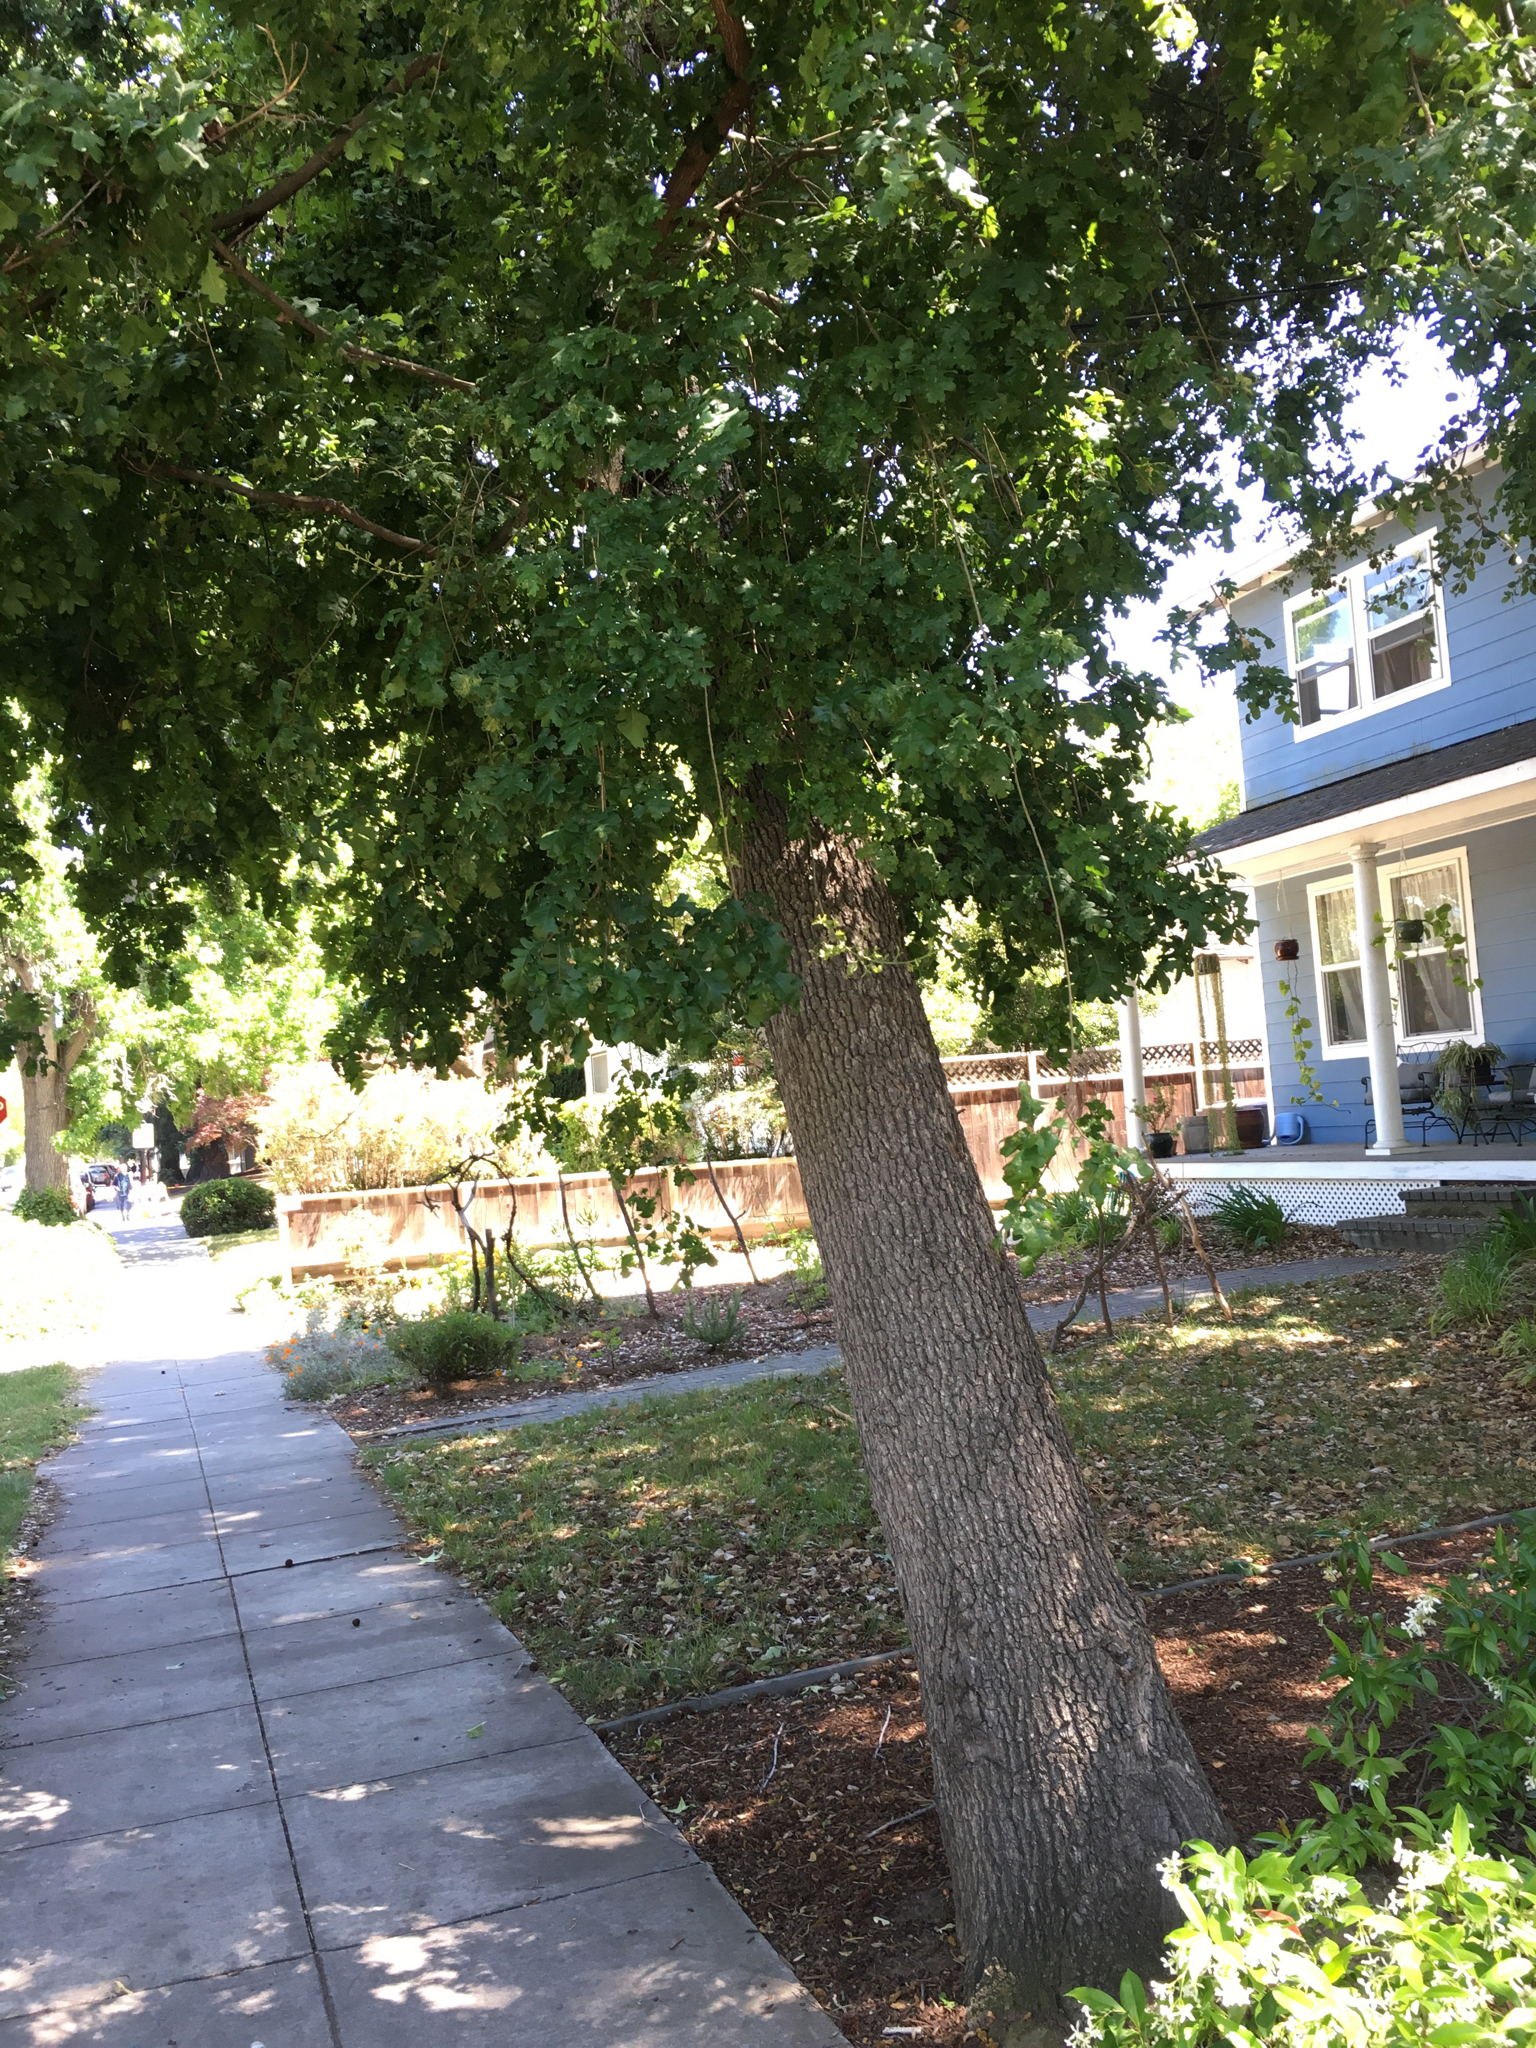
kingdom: Plantae
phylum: Tracheophyta
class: Magnoliopsida
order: Fagales
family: Fagaceae
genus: Quercus
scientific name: Quercus lobata
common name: Valley oak
